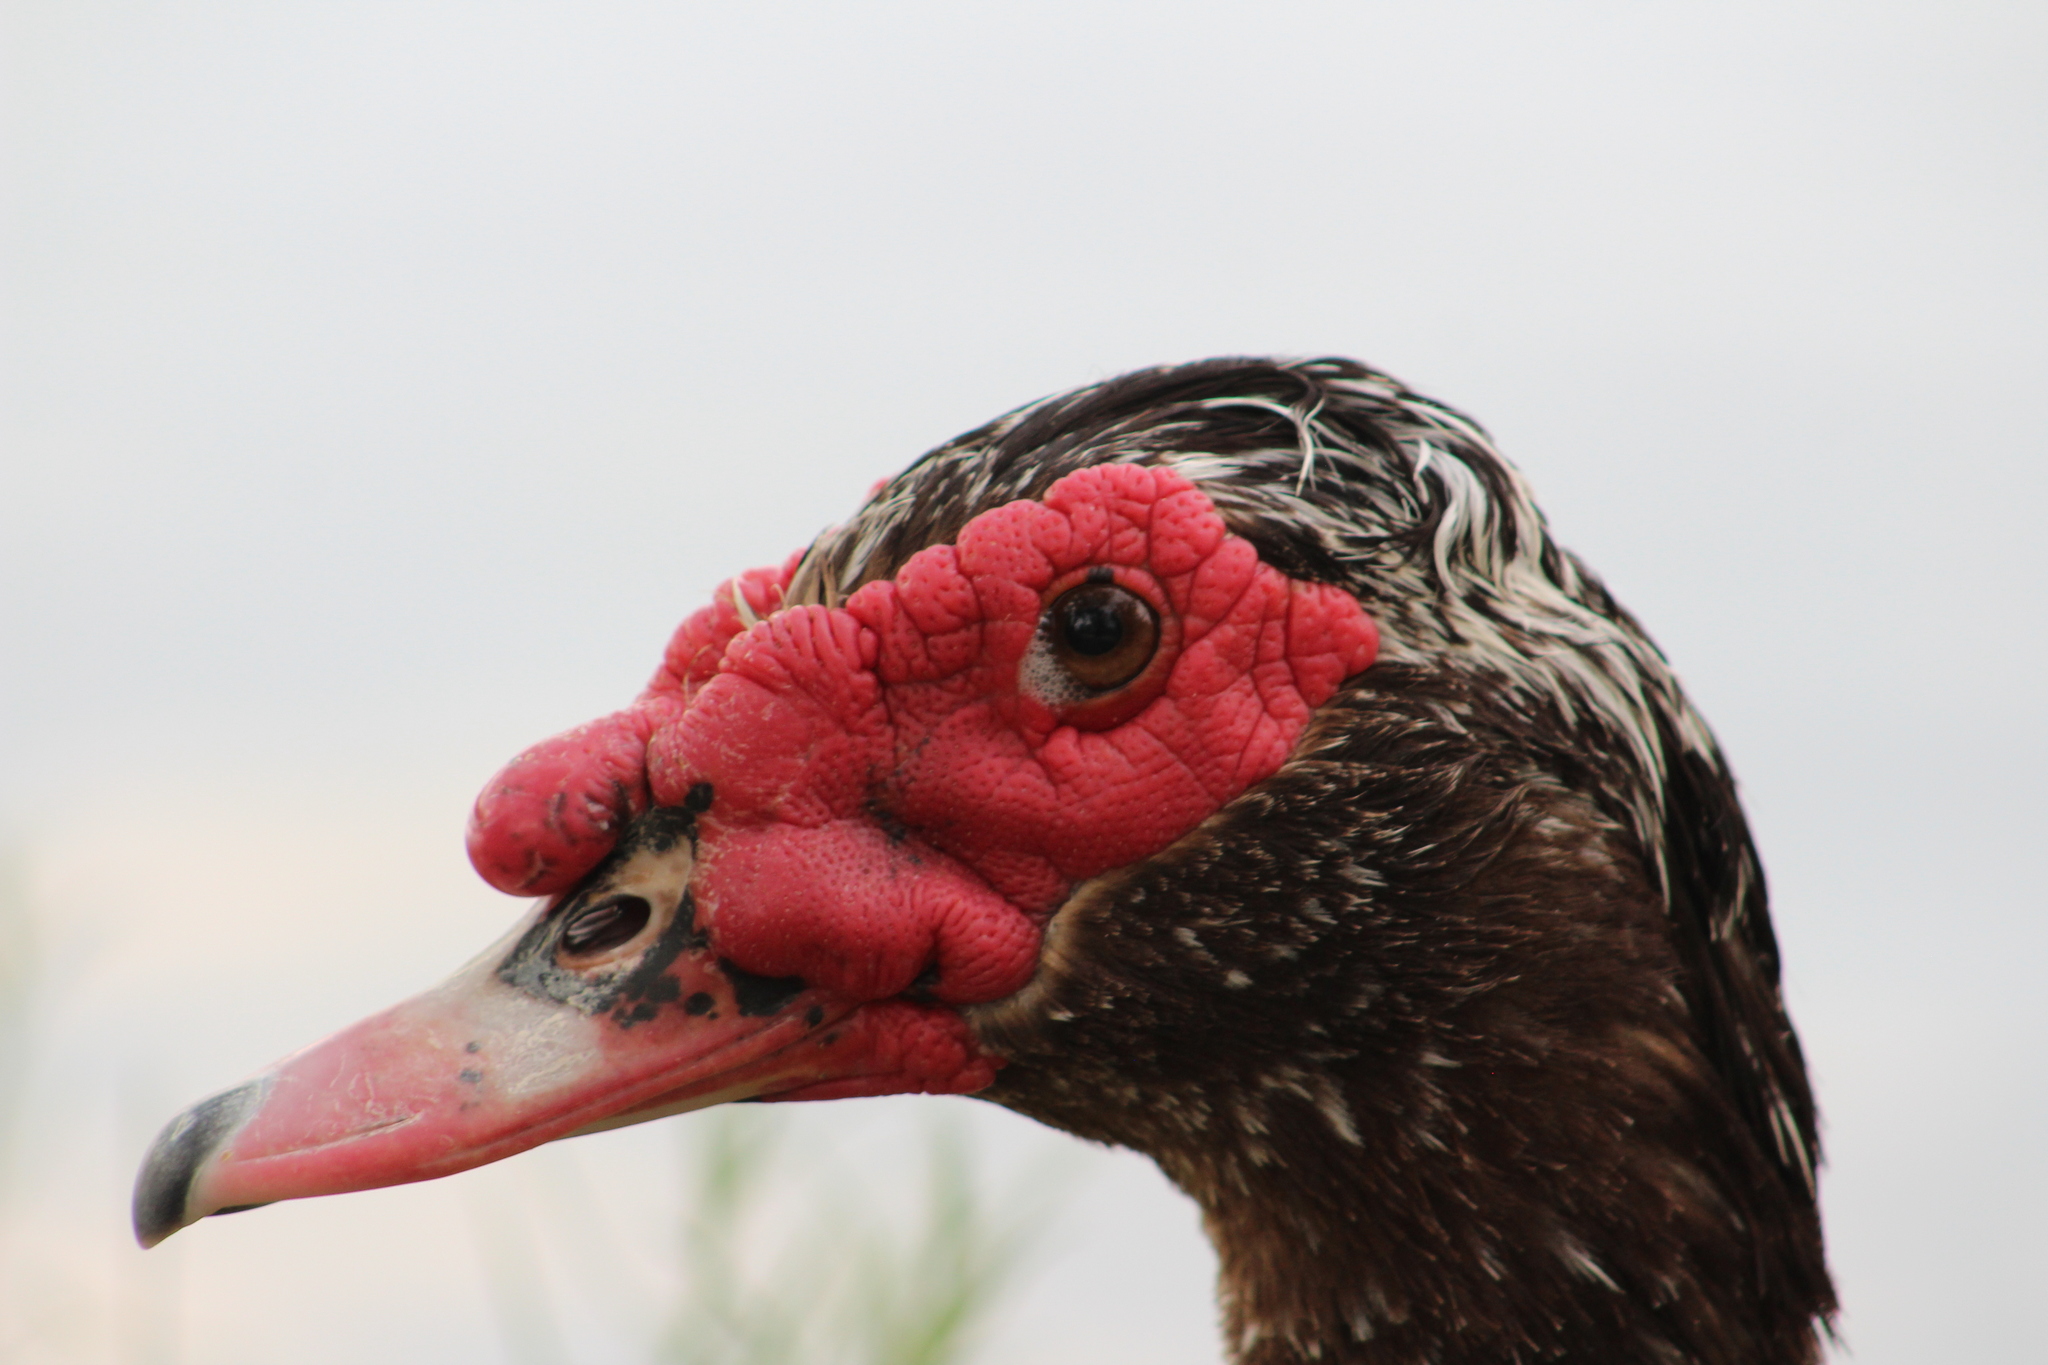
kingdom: Animalia
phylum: Chordata
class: Aves
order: Anseriformes
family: Anatidae
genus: Cairina
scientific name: Cairina moschata
